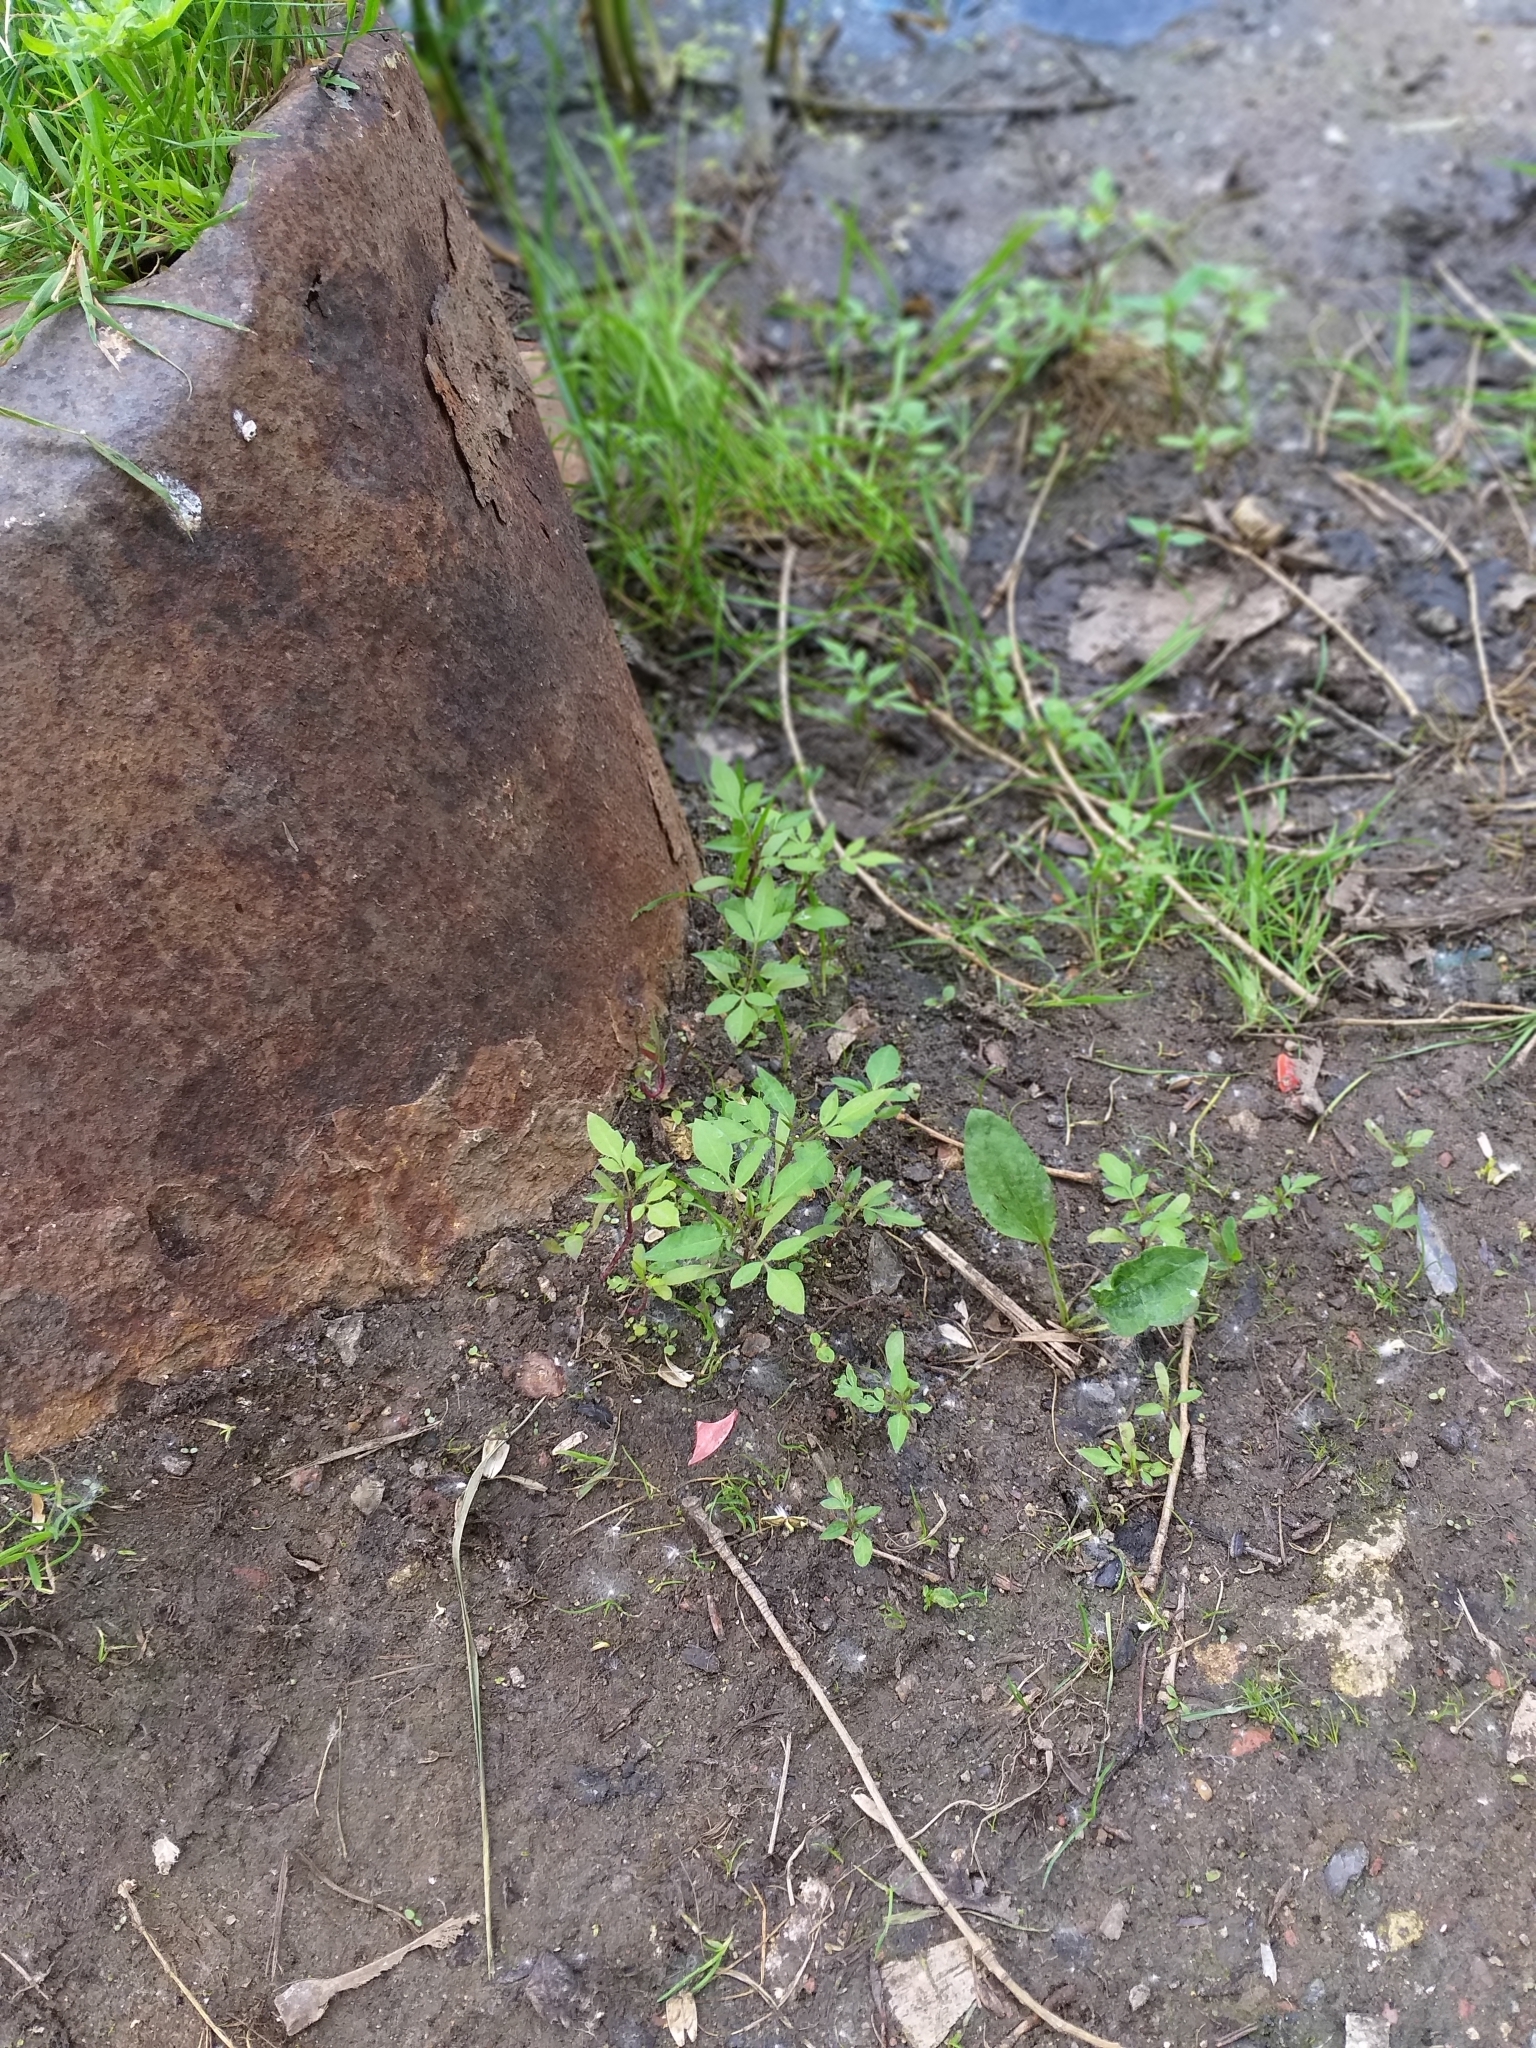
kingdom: Plantae
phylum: Tracheophyta
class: Magnoliopsida
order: Asterales
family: Asteraceae
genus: Bidens
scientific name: Bidens frondosa
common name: Beggarticks
